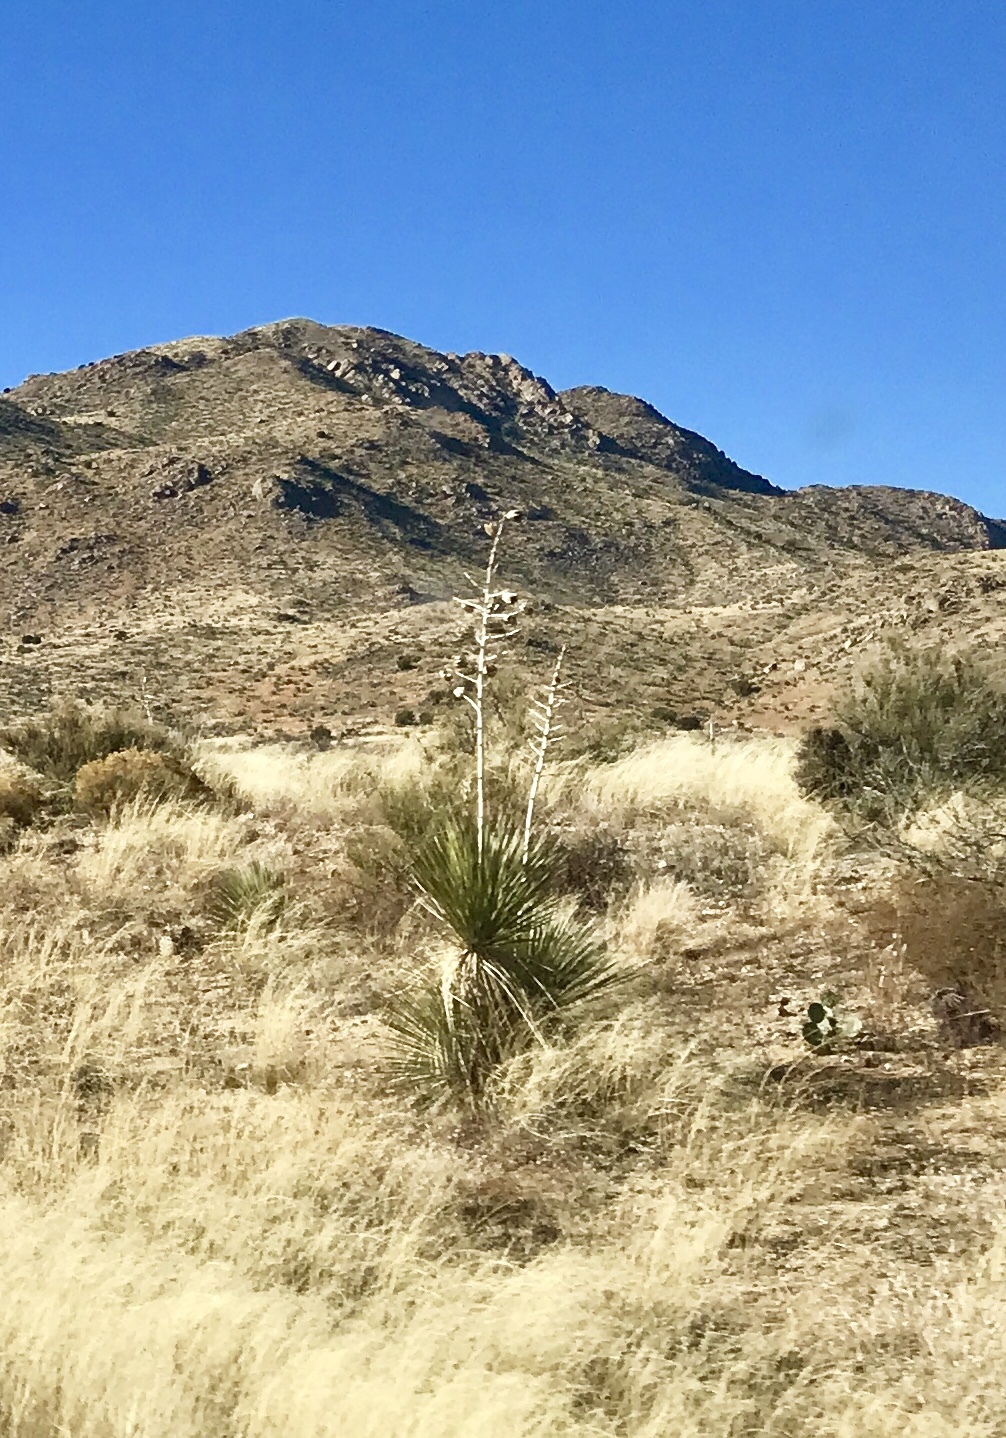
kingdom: Plantae
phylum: Tracheophyta
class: Liliopsida
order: Asparagales
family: Asparagaceae
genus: Yucca
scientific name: Yucca elata
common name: Palmella
